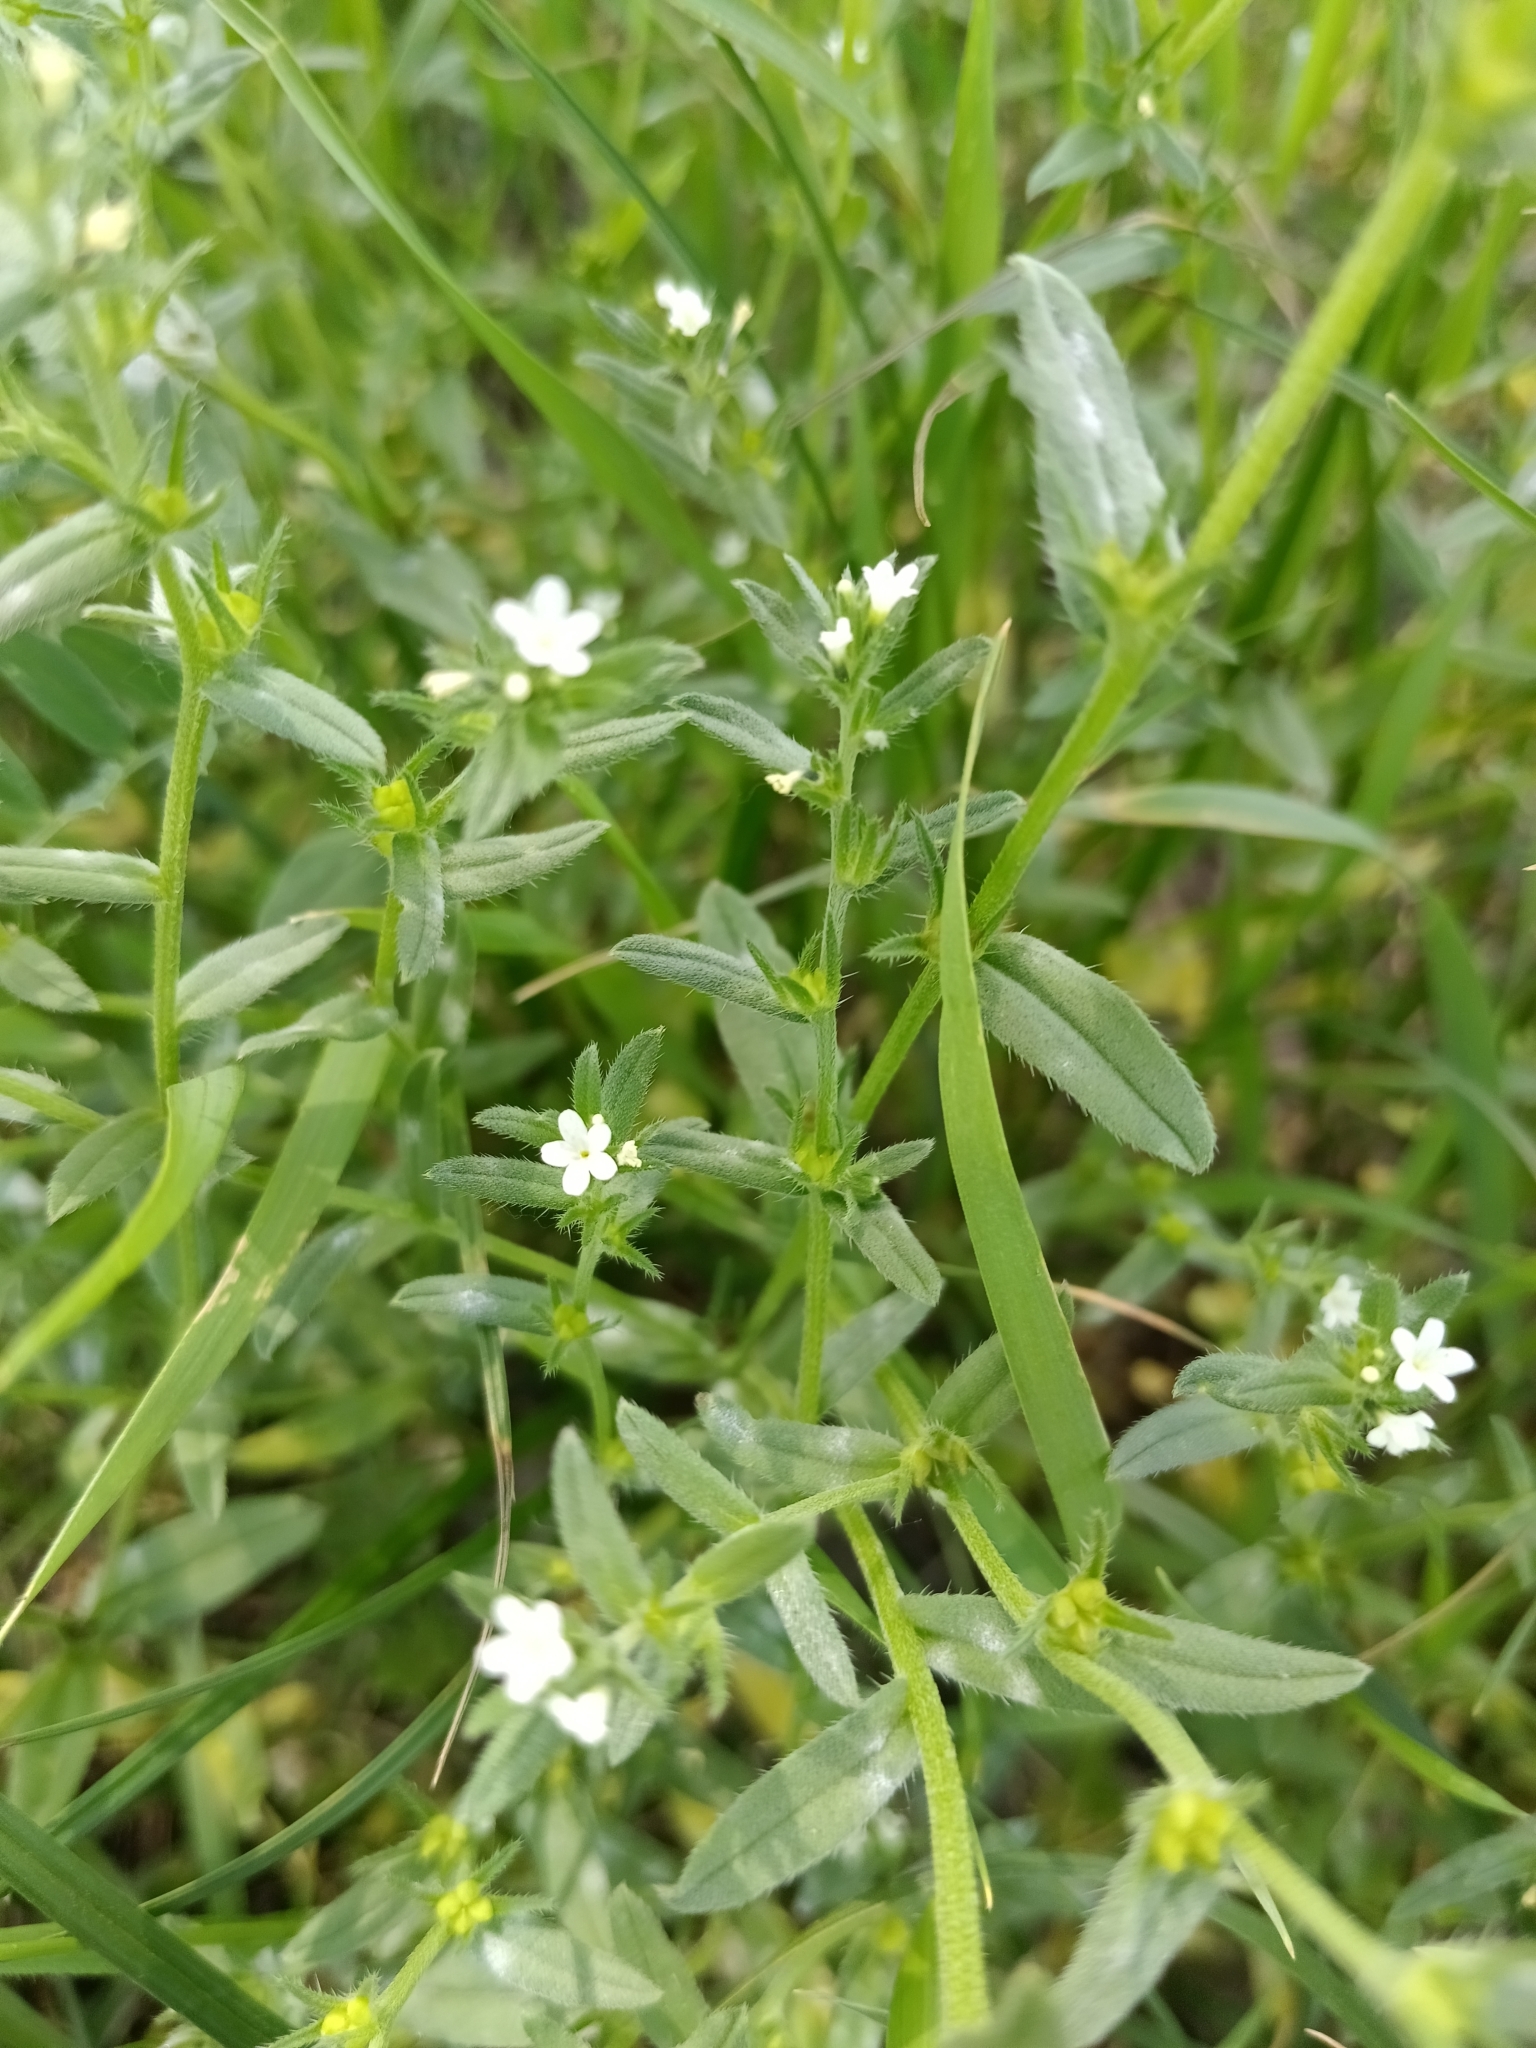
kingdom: Plantae
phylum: Tracheophyta
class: Magnoliopsida
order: Boraginales
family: Boraginaceae
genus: Buglossoides
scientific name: Buglossoides arvensis
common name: Corn gromwell
